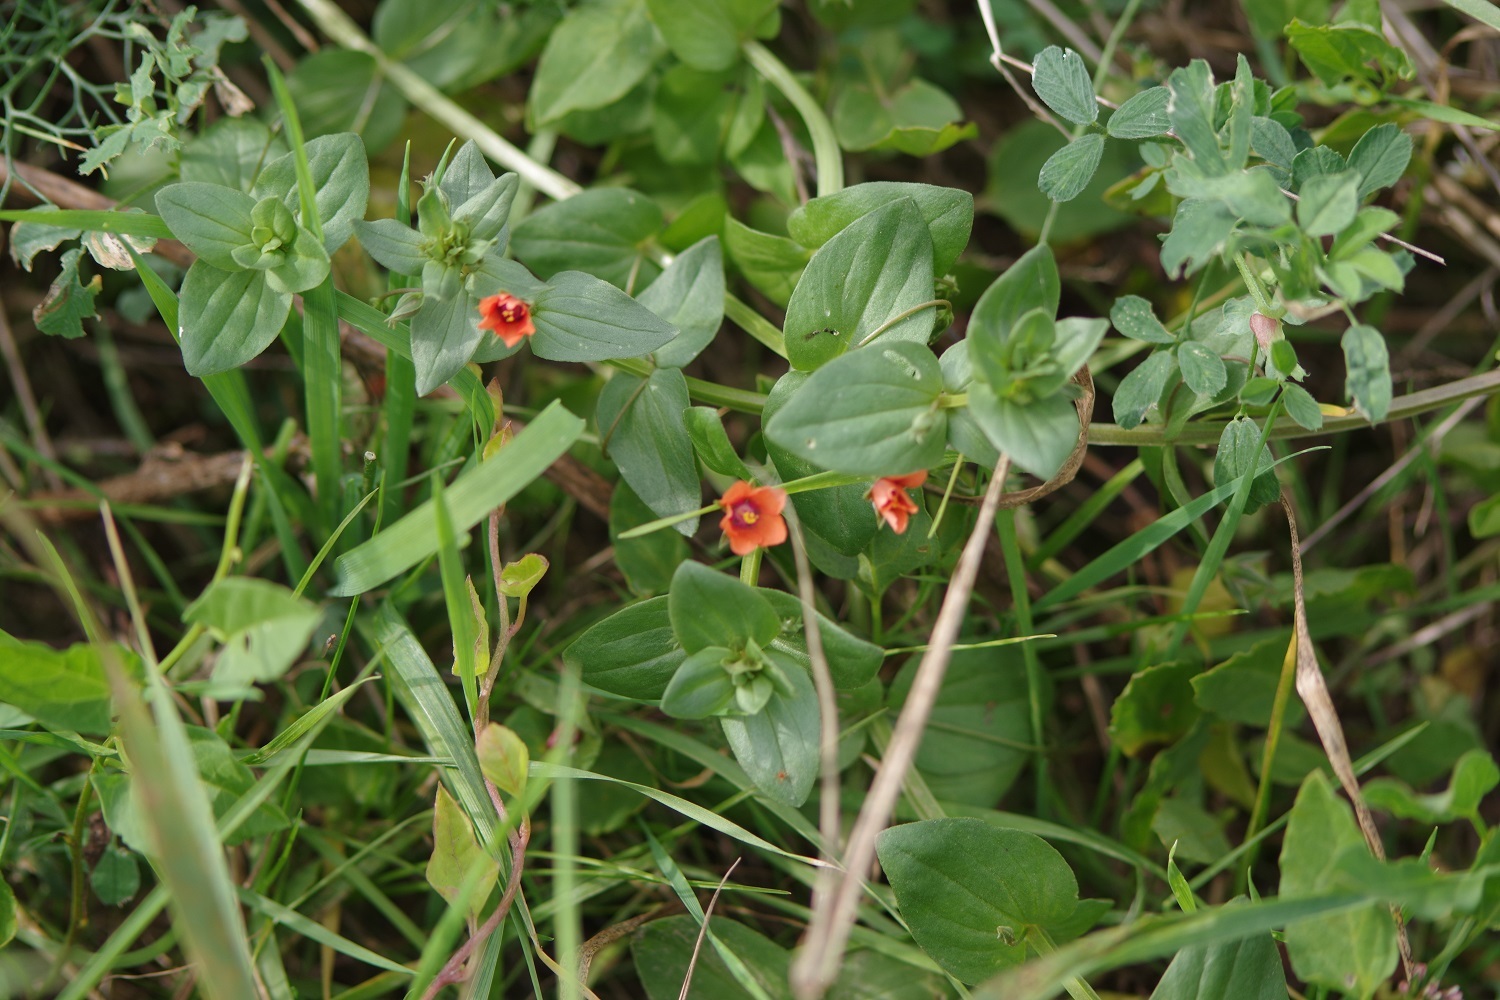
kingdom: Plantae
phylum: Tracheophyta
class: Magnoliopsida
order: Ericales
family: Primulaceae
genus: Lysimachia
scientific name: Lysimachia arvensis
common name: Scarlet pimpernel
